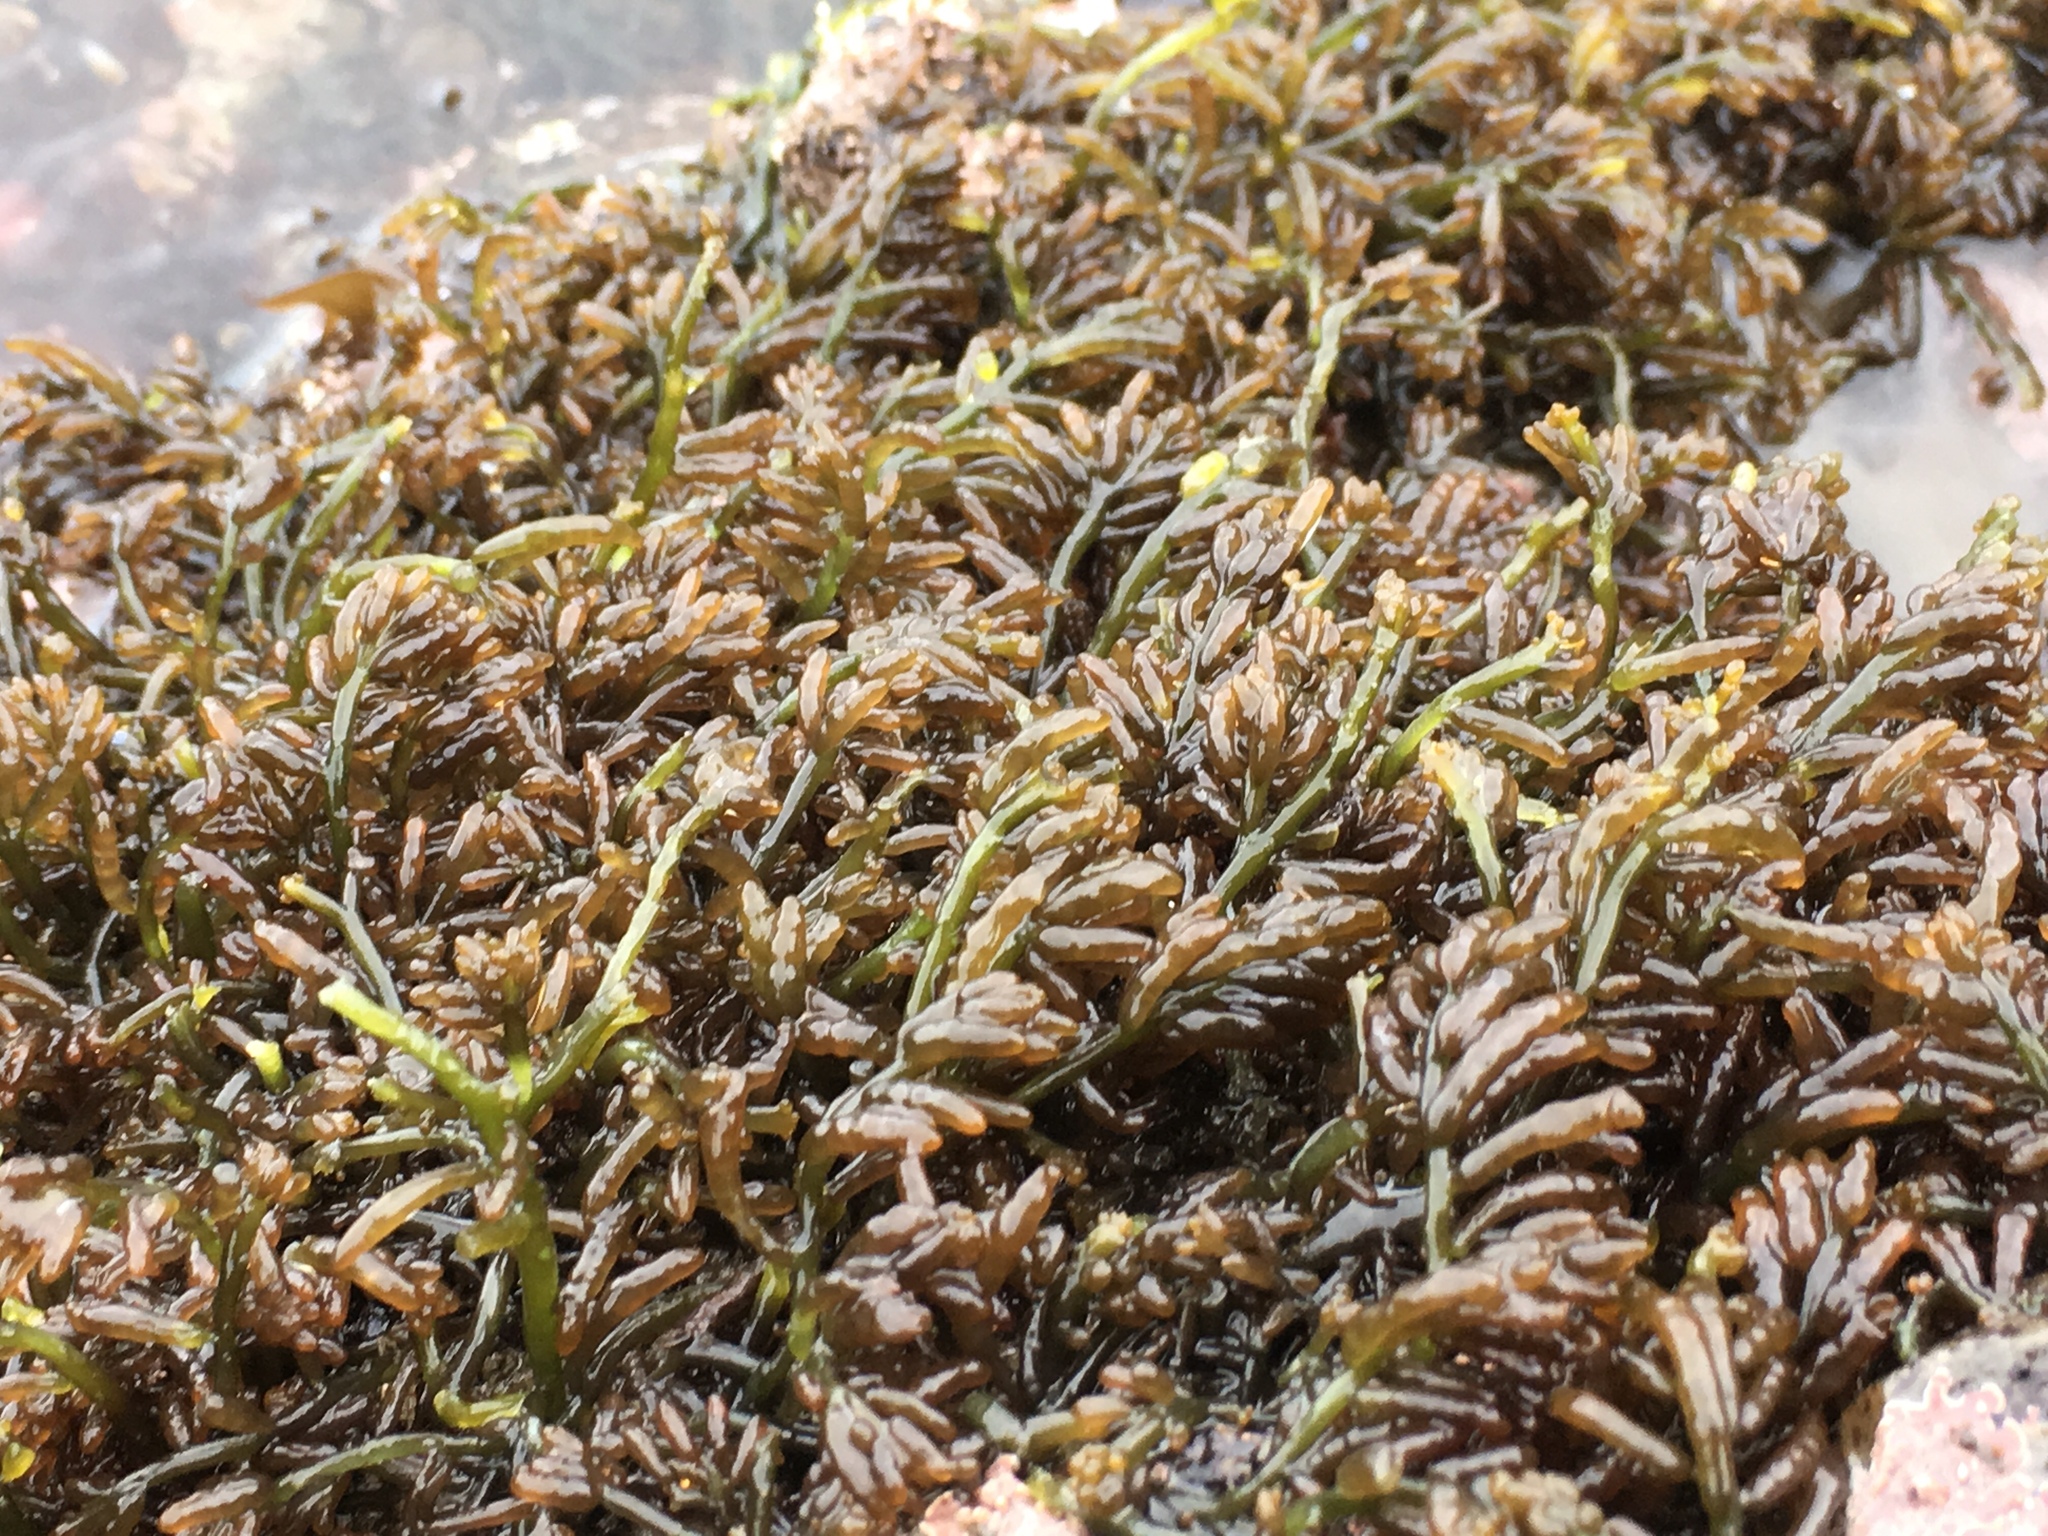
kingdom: Plantae
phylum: Rhodophyta
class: Florideophyceae
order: Rhodymeniales
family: Champiaceae
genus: Neogastroclonium
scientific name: Neogastroclonium subarticulatum
